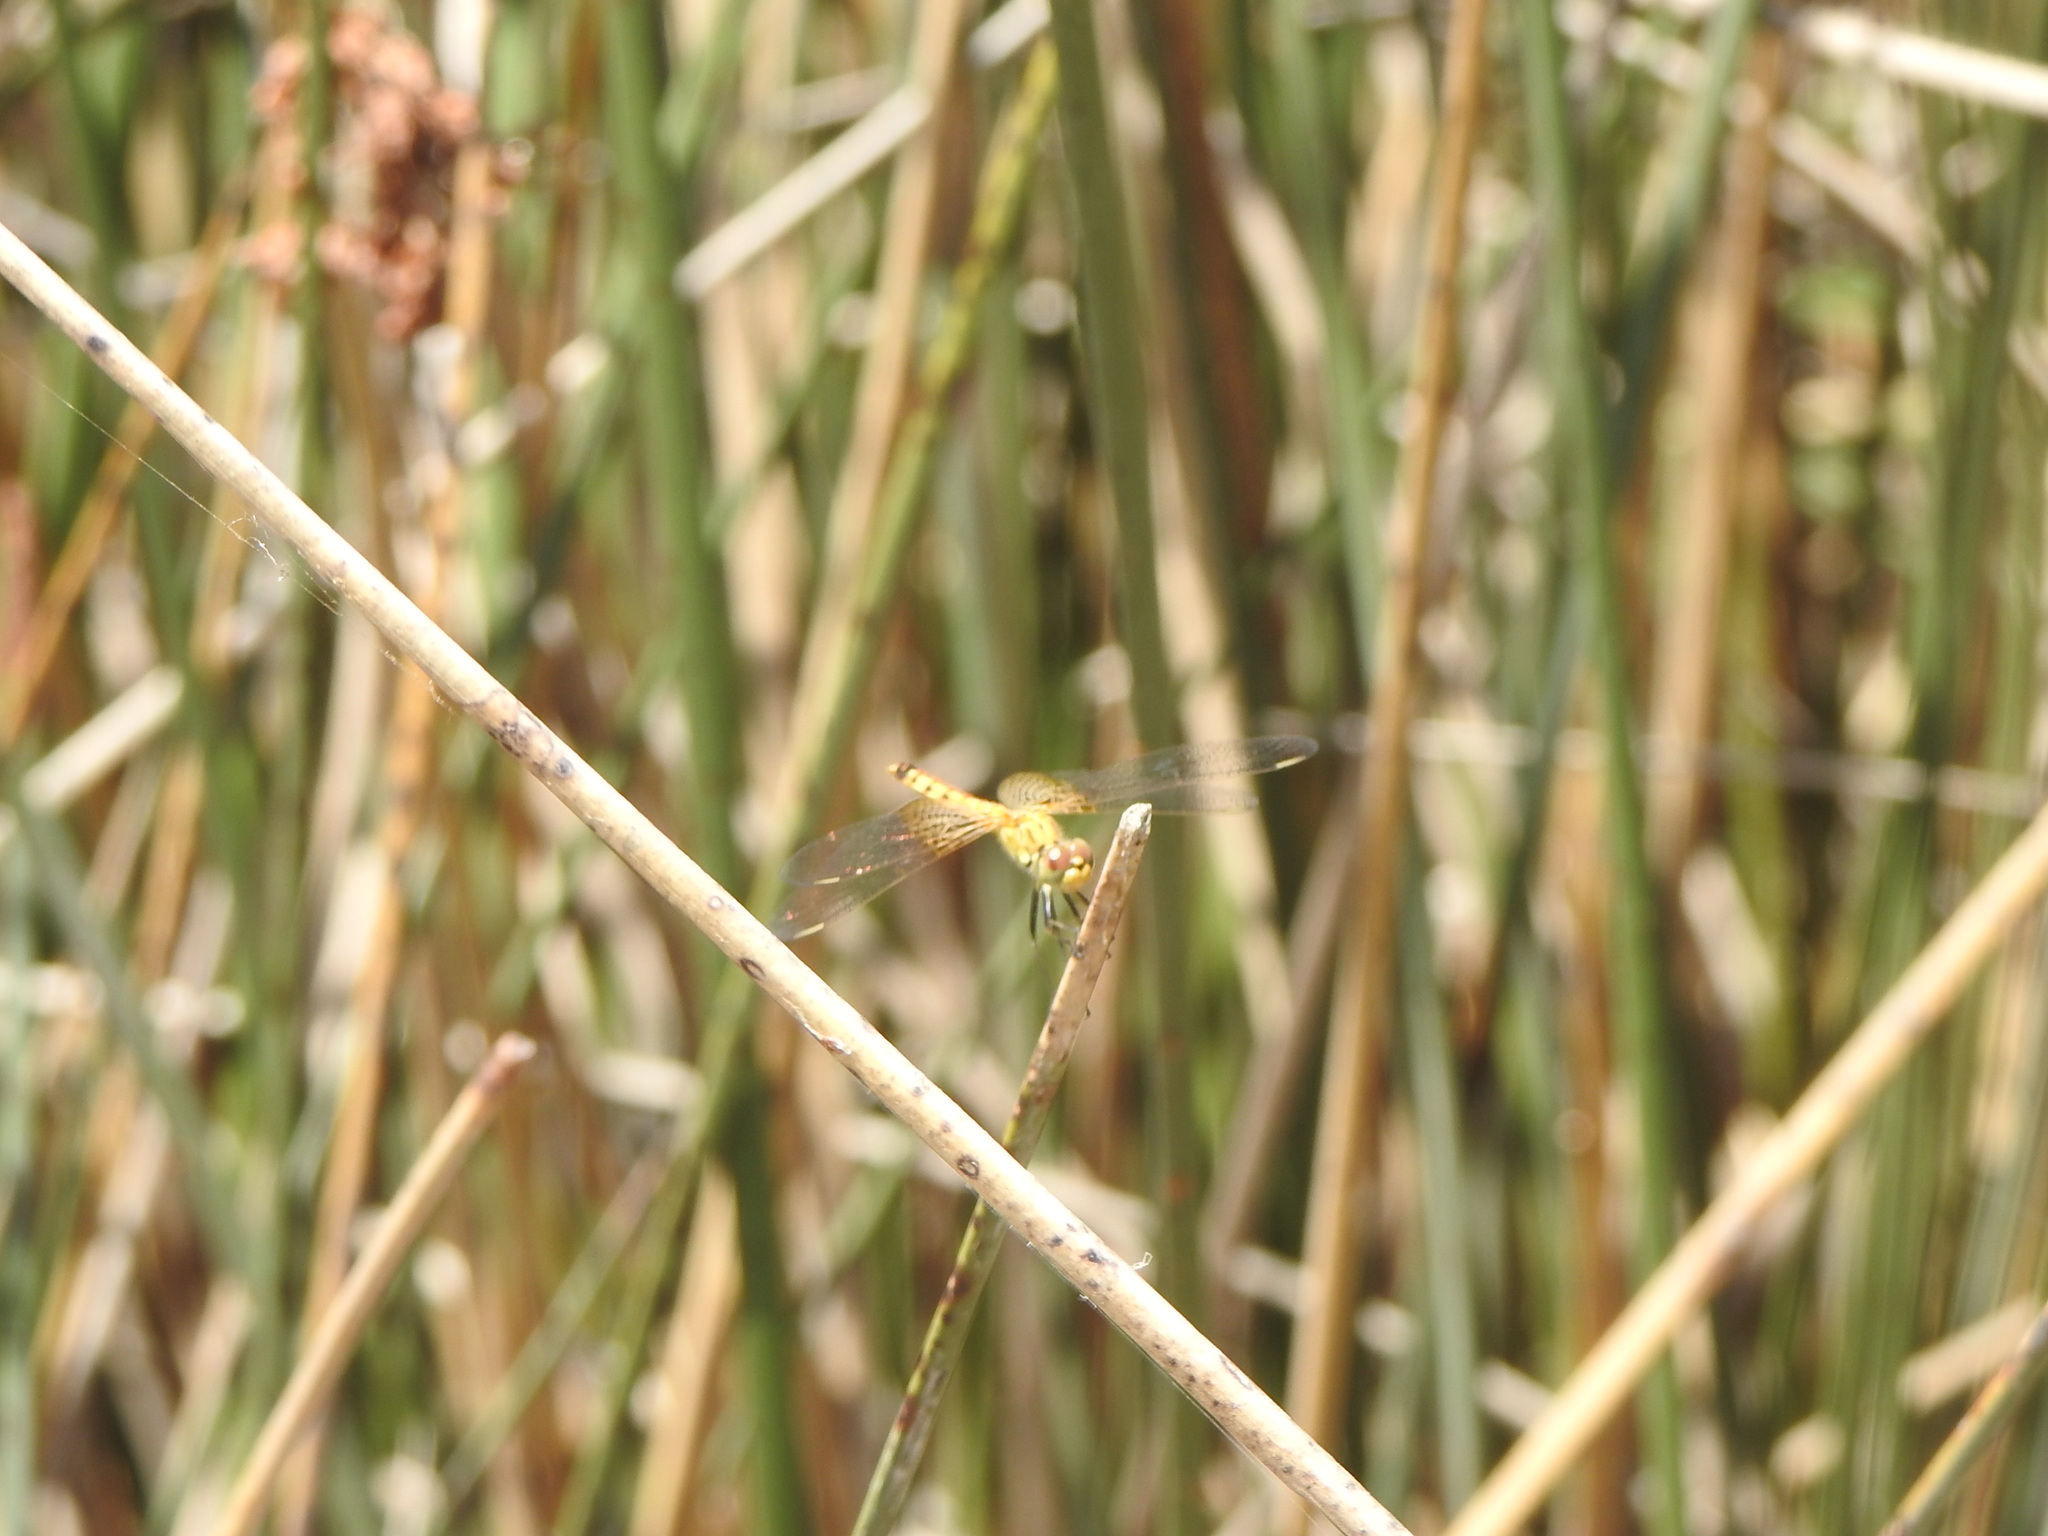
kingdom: Animalia
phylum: Arthropoda
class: Insecta
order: Odonata
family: Libellulidae
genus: Erythrodiplax
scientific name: Erythrodiplax corallina
